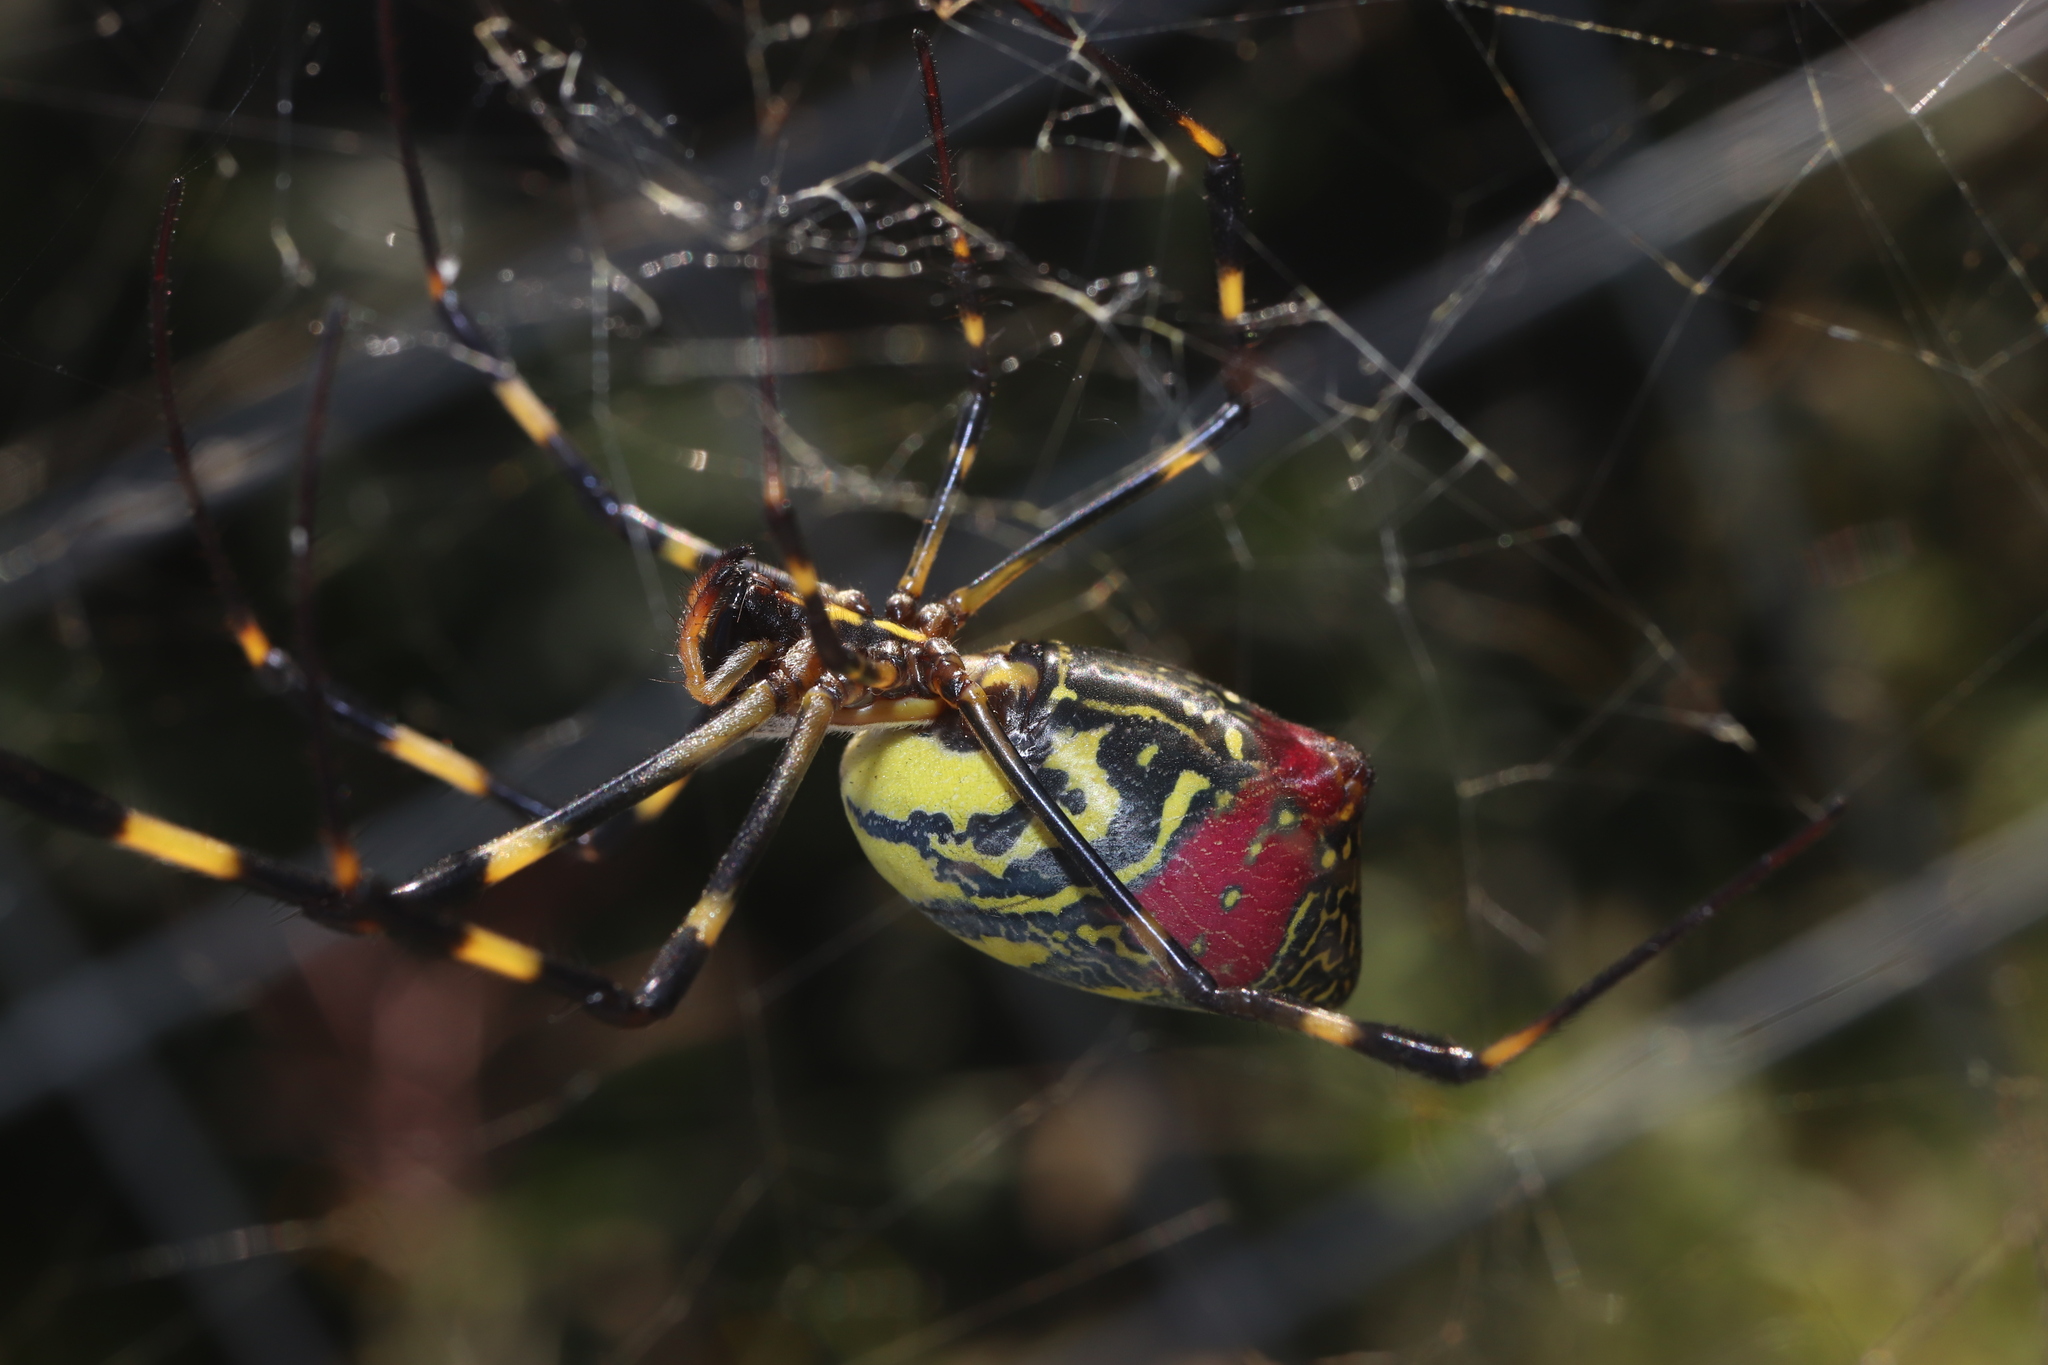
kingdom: Animalia
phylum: Arthropoda
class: Arachnida
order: Araneae
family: Araneidae
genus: Trichonephila
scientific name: Trichonephila clavata
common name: Jorō spider
